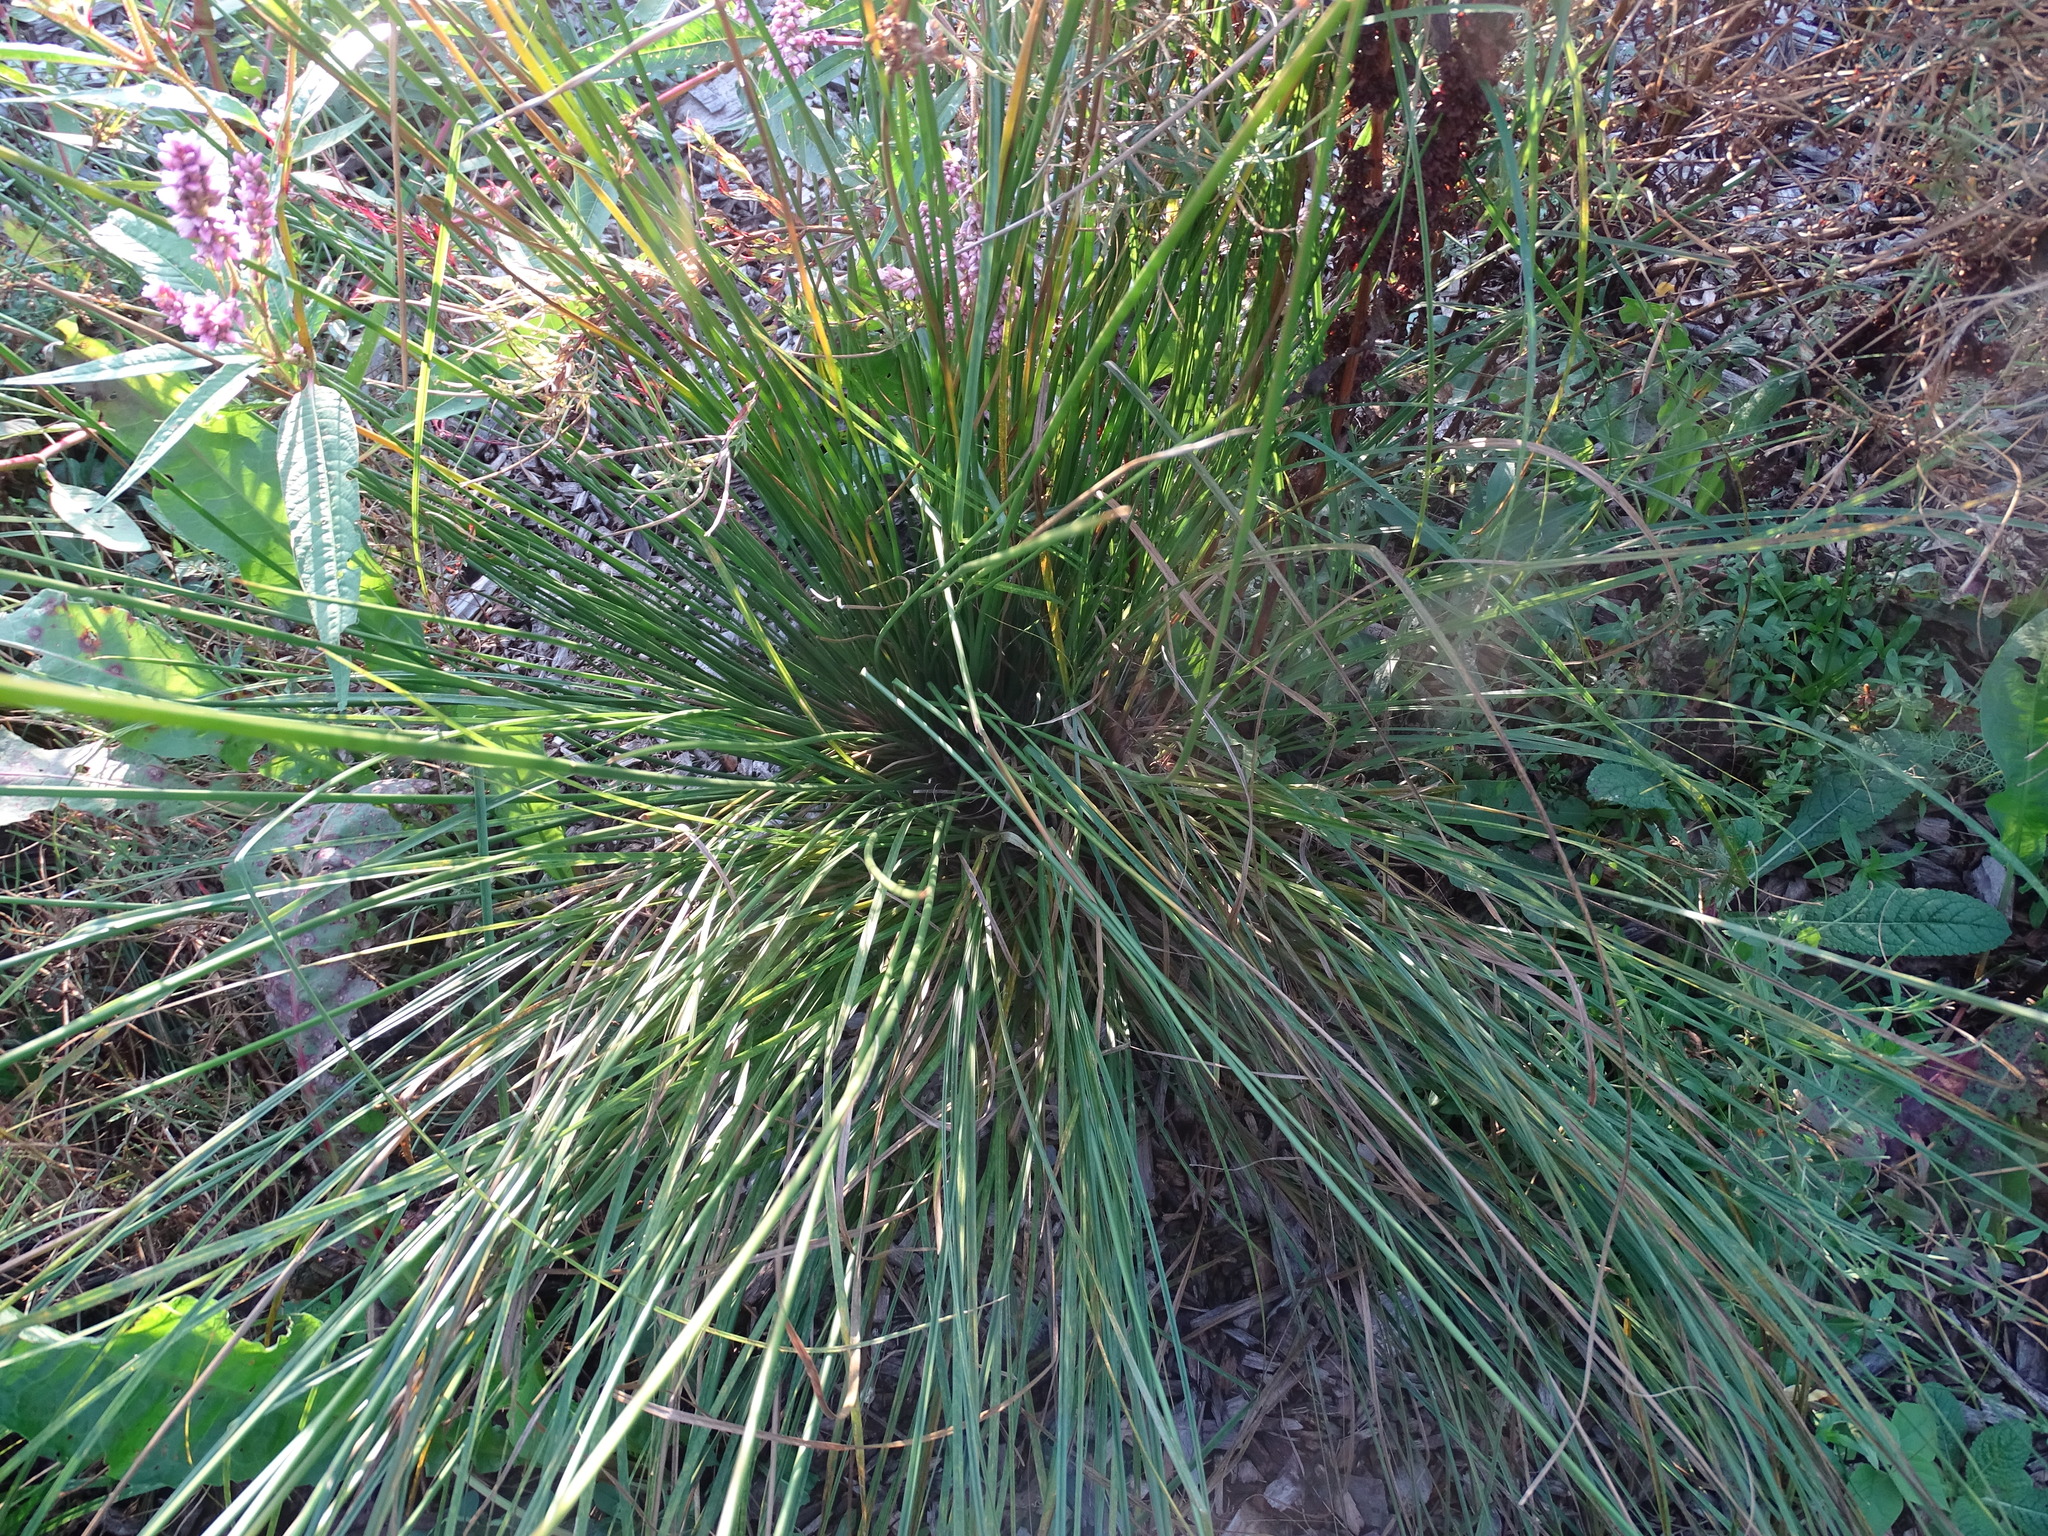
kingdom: Plantae
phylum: Tracheophyta
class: Liliopsida
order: Poales
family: Juncaceae
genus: Juncus
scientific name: Juncus effusus
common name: Soft rush
